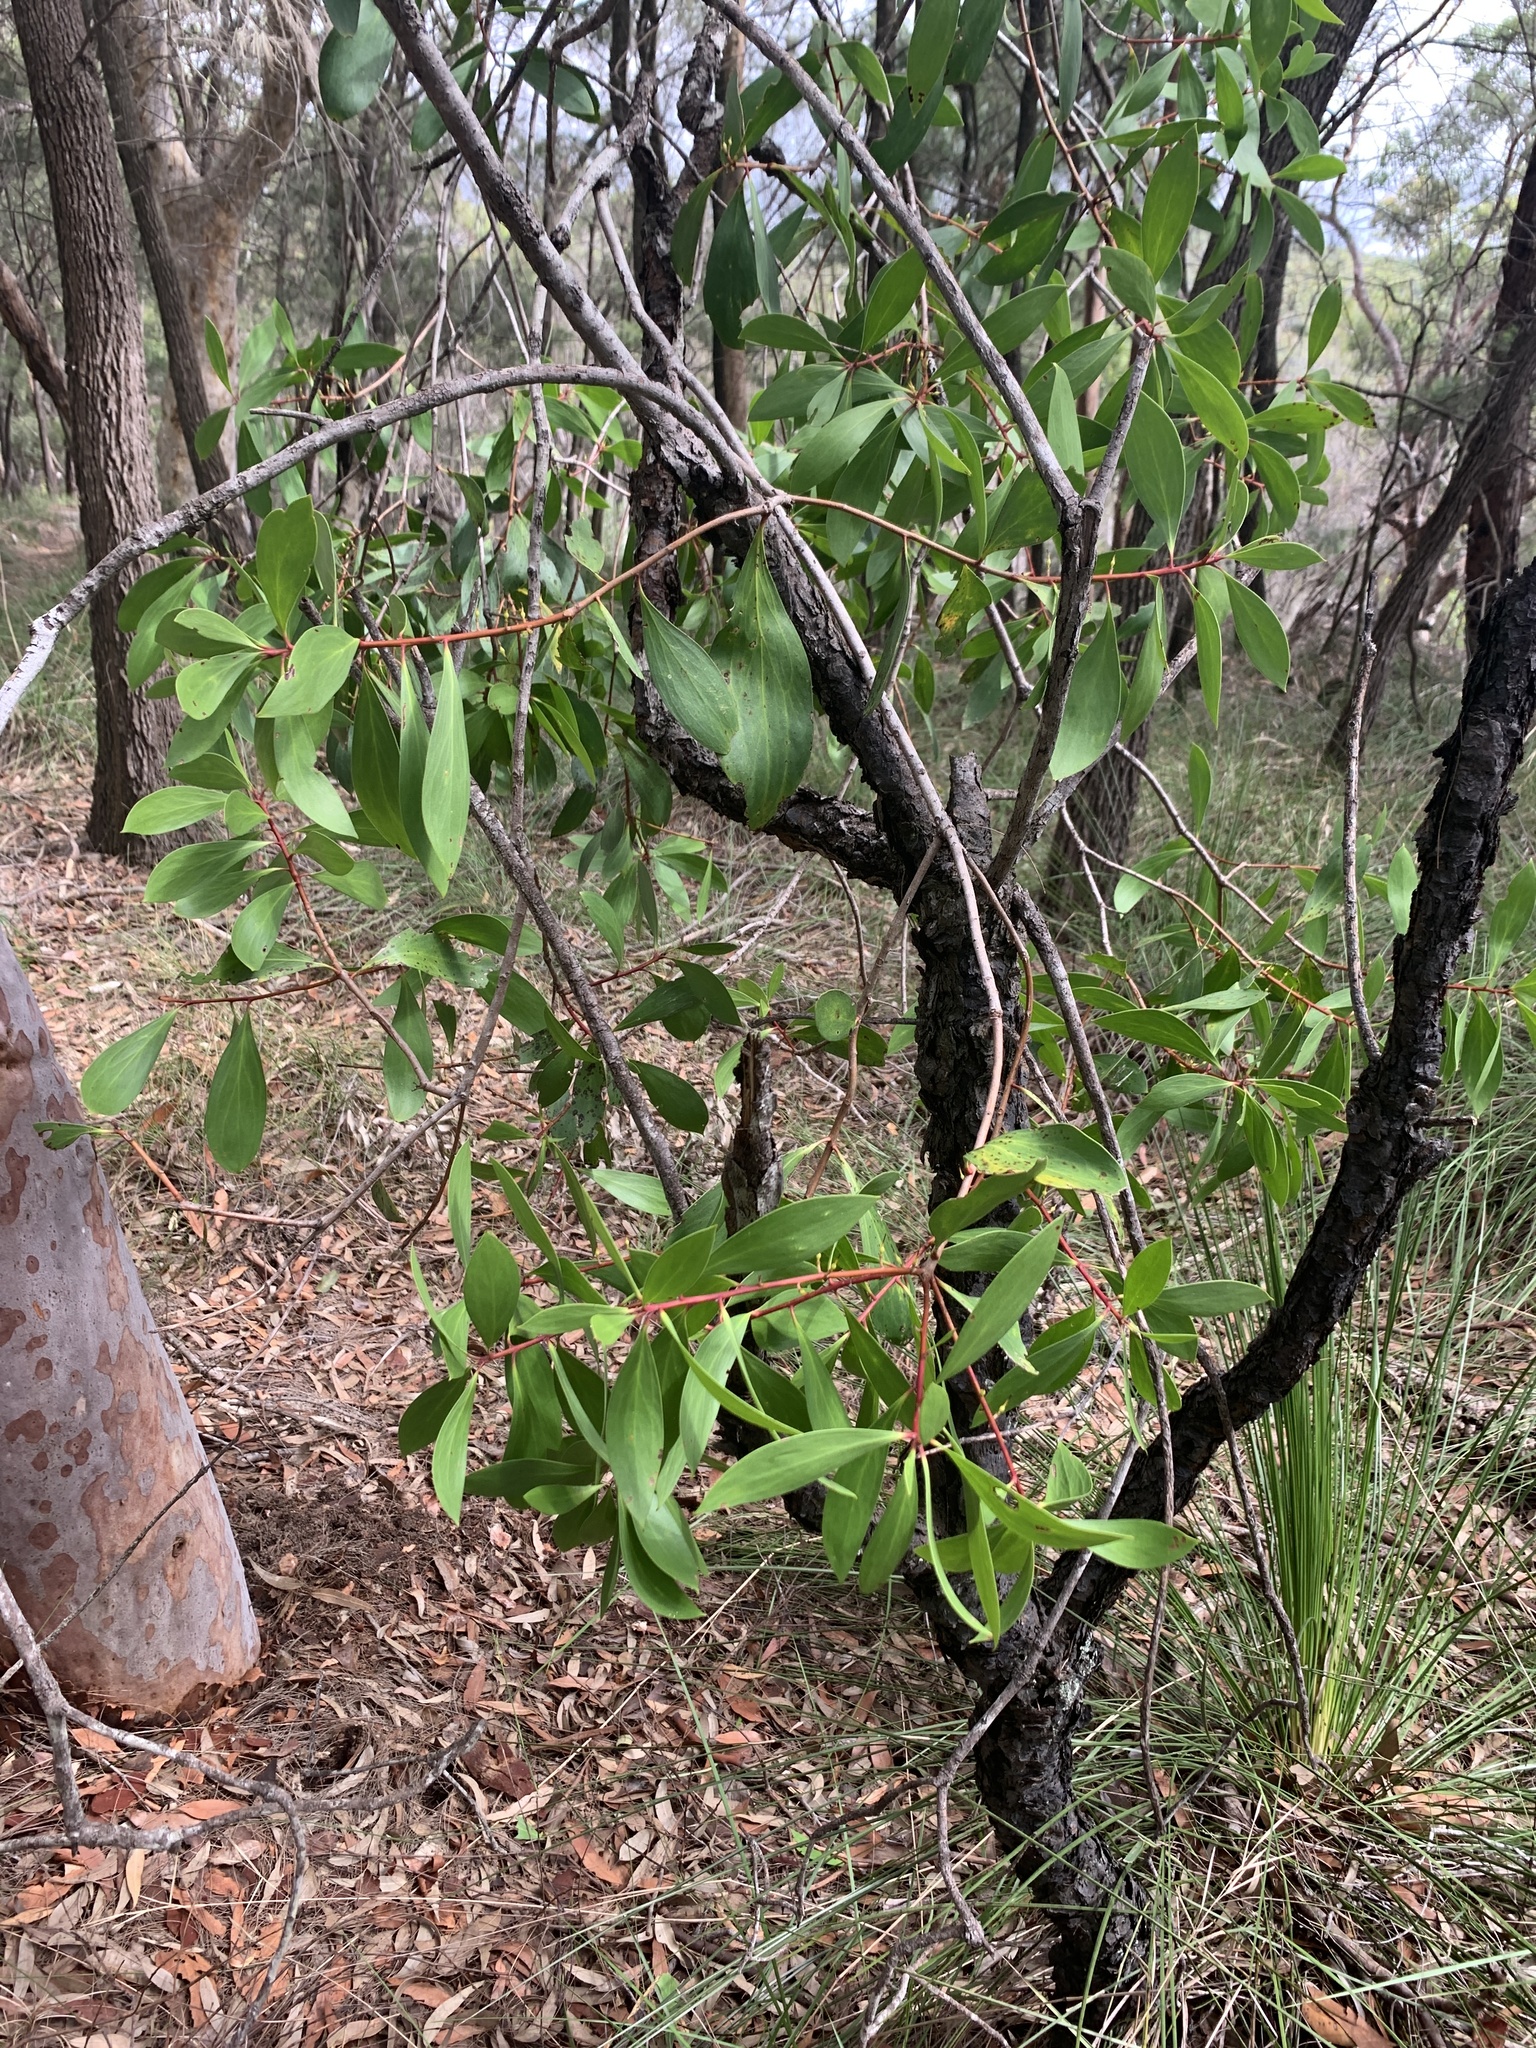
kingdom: Plantae
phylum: Tracheophyta
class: Magnoliopsida
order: Proteales
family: Proteaceae
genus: Persoonia
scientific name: Persoonia levis
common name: Smooth geebung
